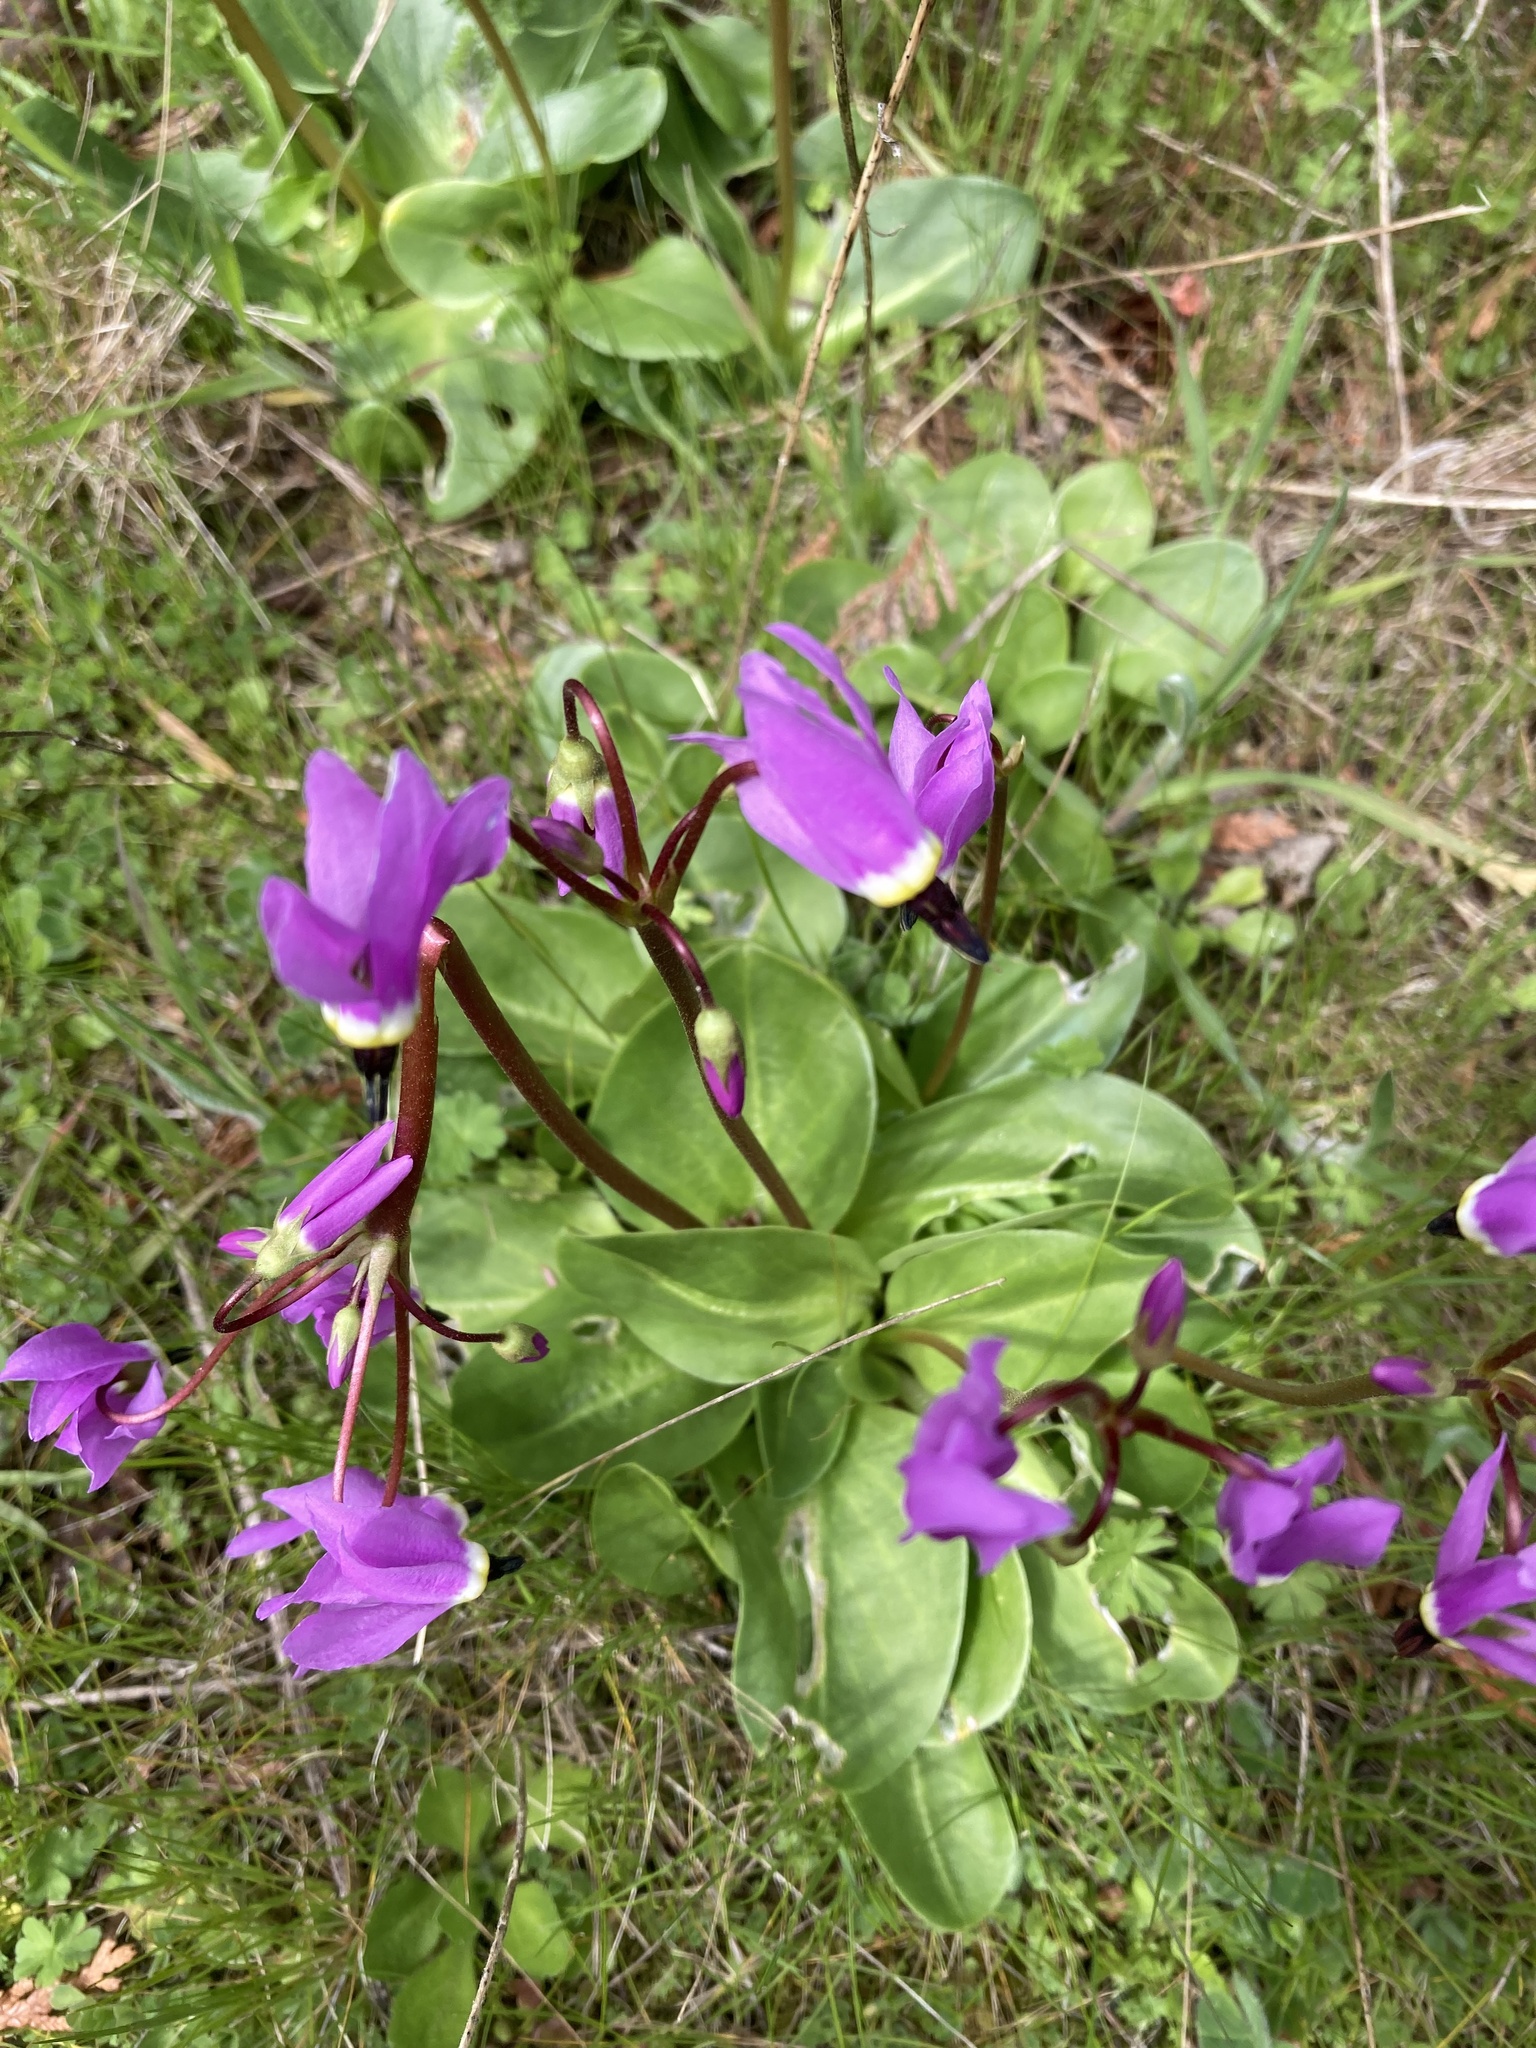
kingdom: Plantae
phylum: Tracheophyta
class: Magnoliopsida
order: Ericales
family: Primulaceae
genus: Dodecatheon
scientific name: Dodecatheon hendersonii
